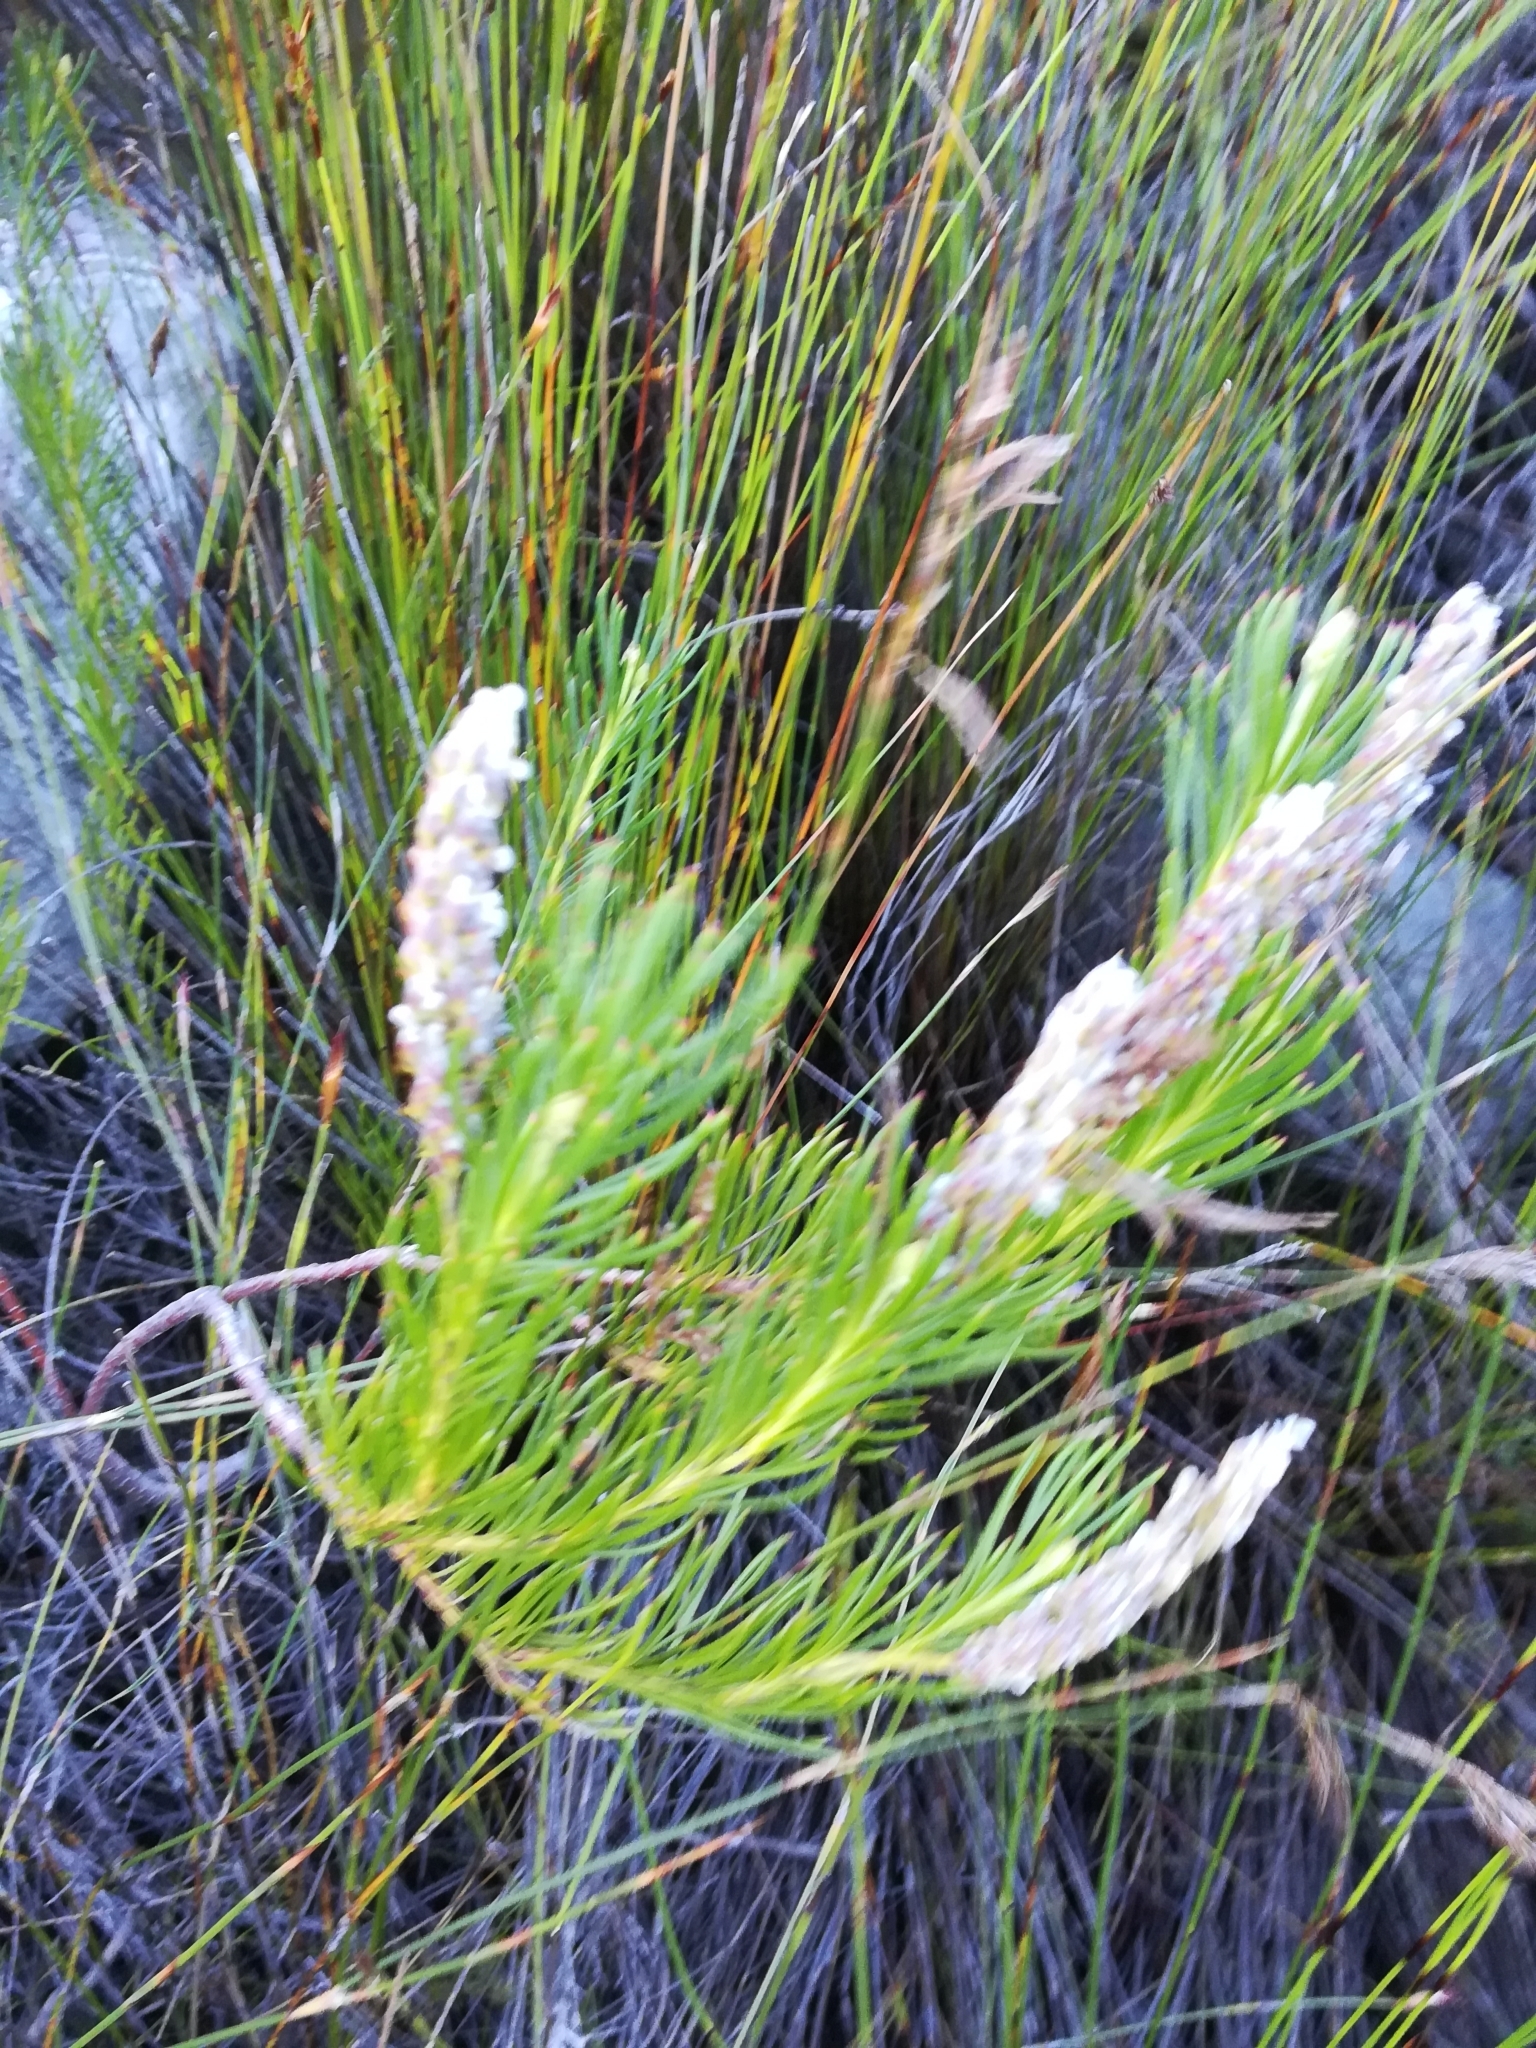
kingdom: Plantae
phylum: Tracheophyta
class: Magnoliopsida
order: Proteales
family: Proteaceae
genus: Spatalla
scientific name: Spatalla curvifolia
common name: White-stalked spoon
